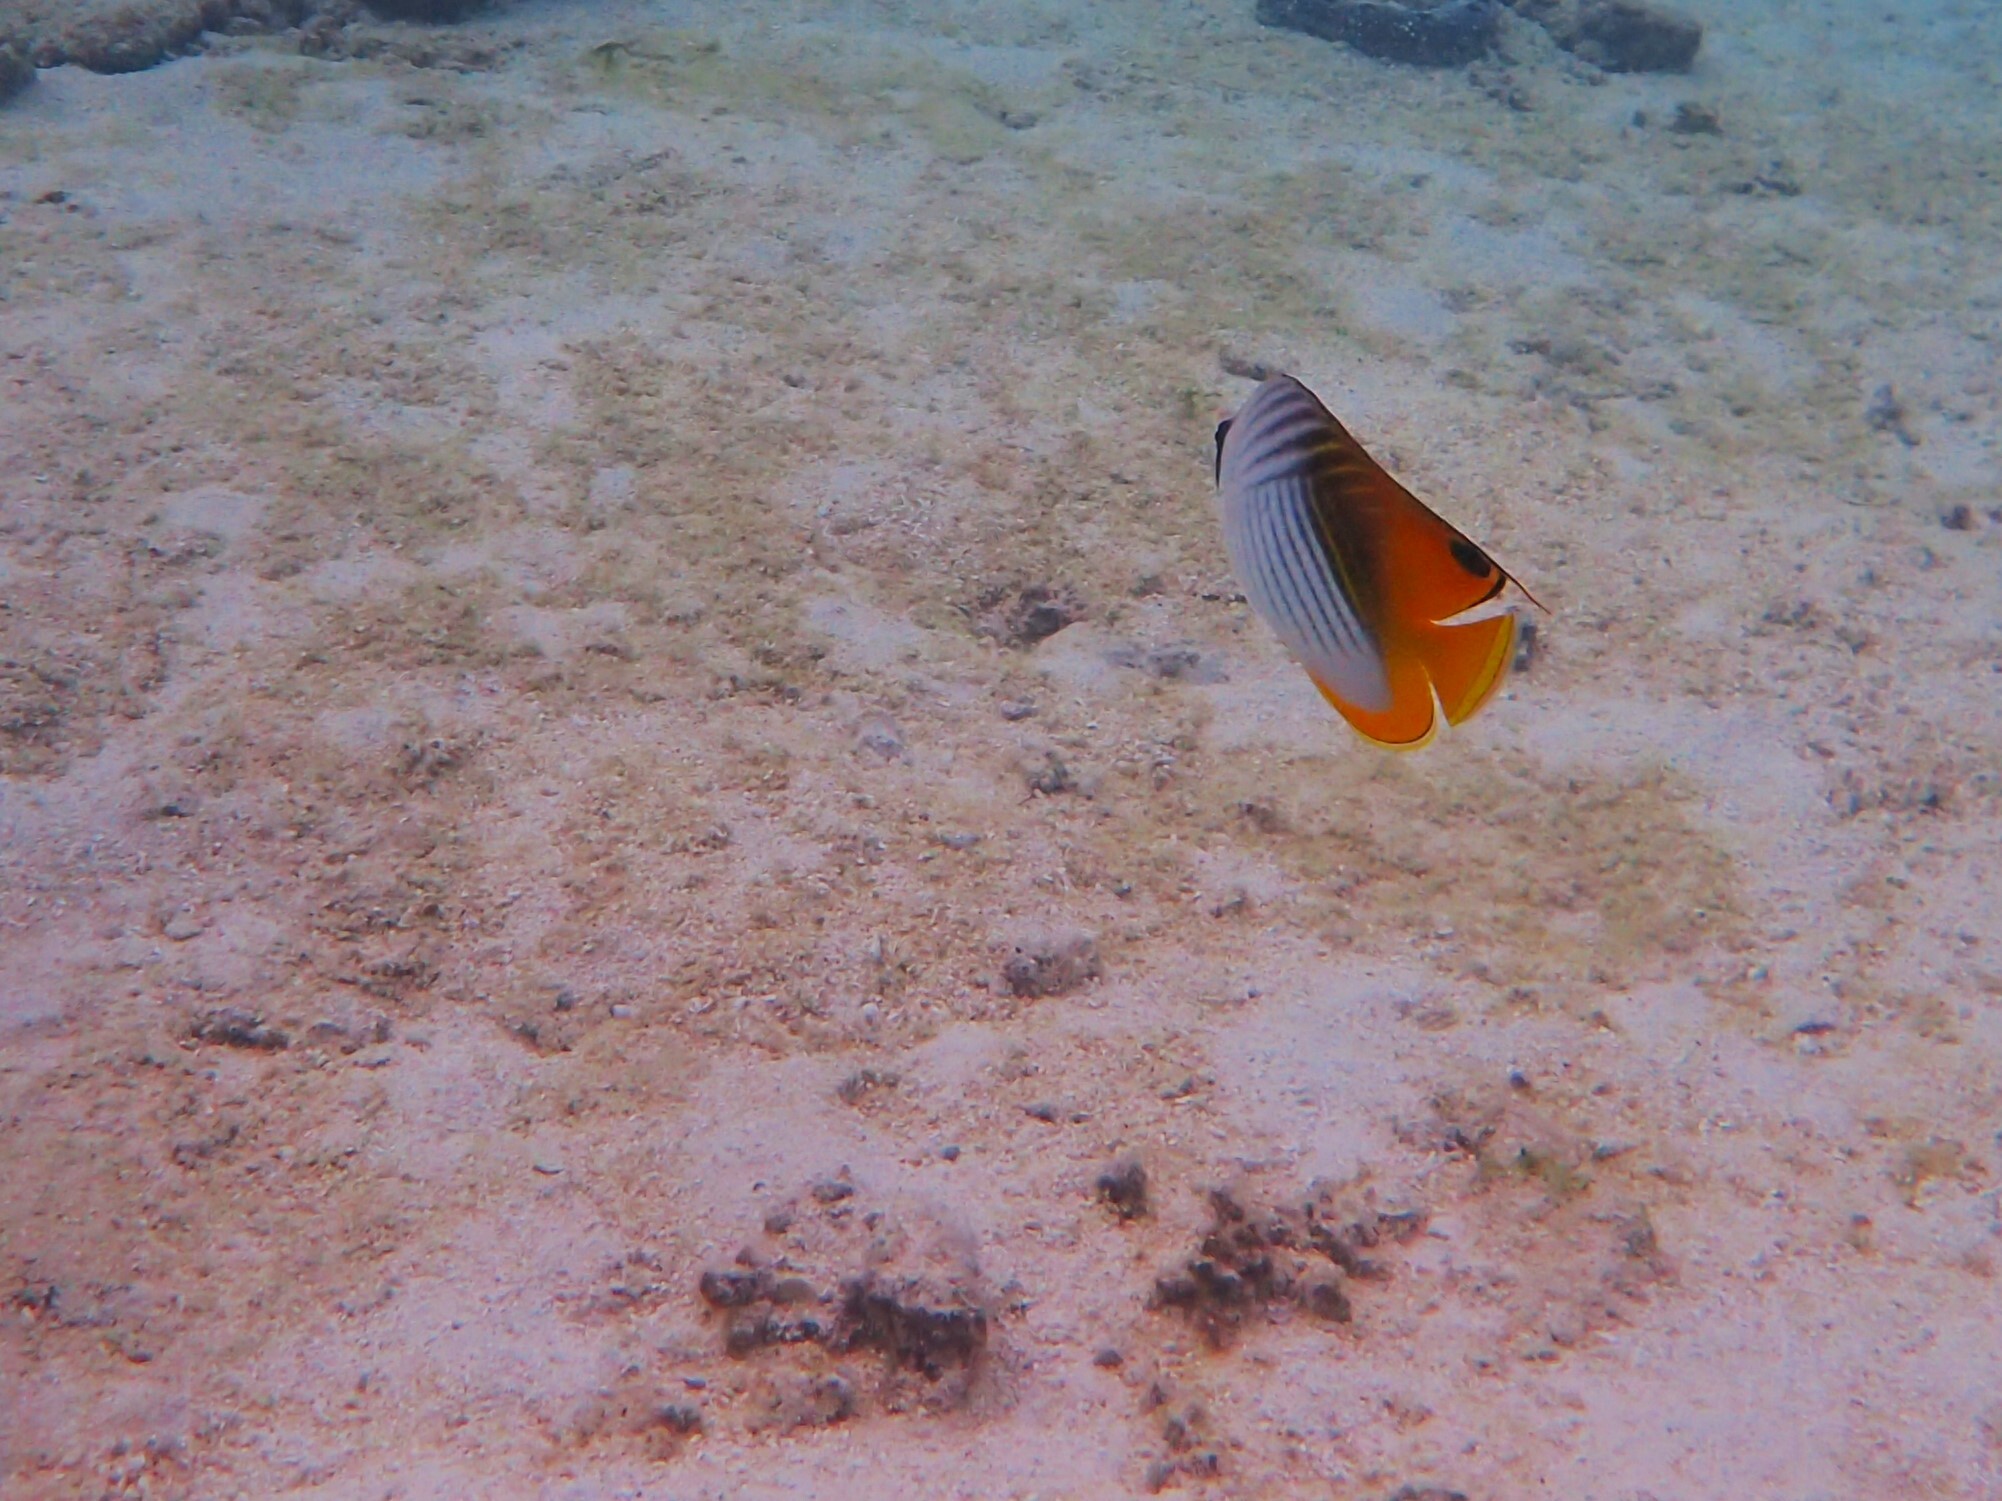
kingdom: Animalia
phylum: Chordata
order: Perciformes
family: Chaetodontidae
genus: Chaetodon
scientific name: Chaetodon auriga
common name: Threadfin butterflyfish
